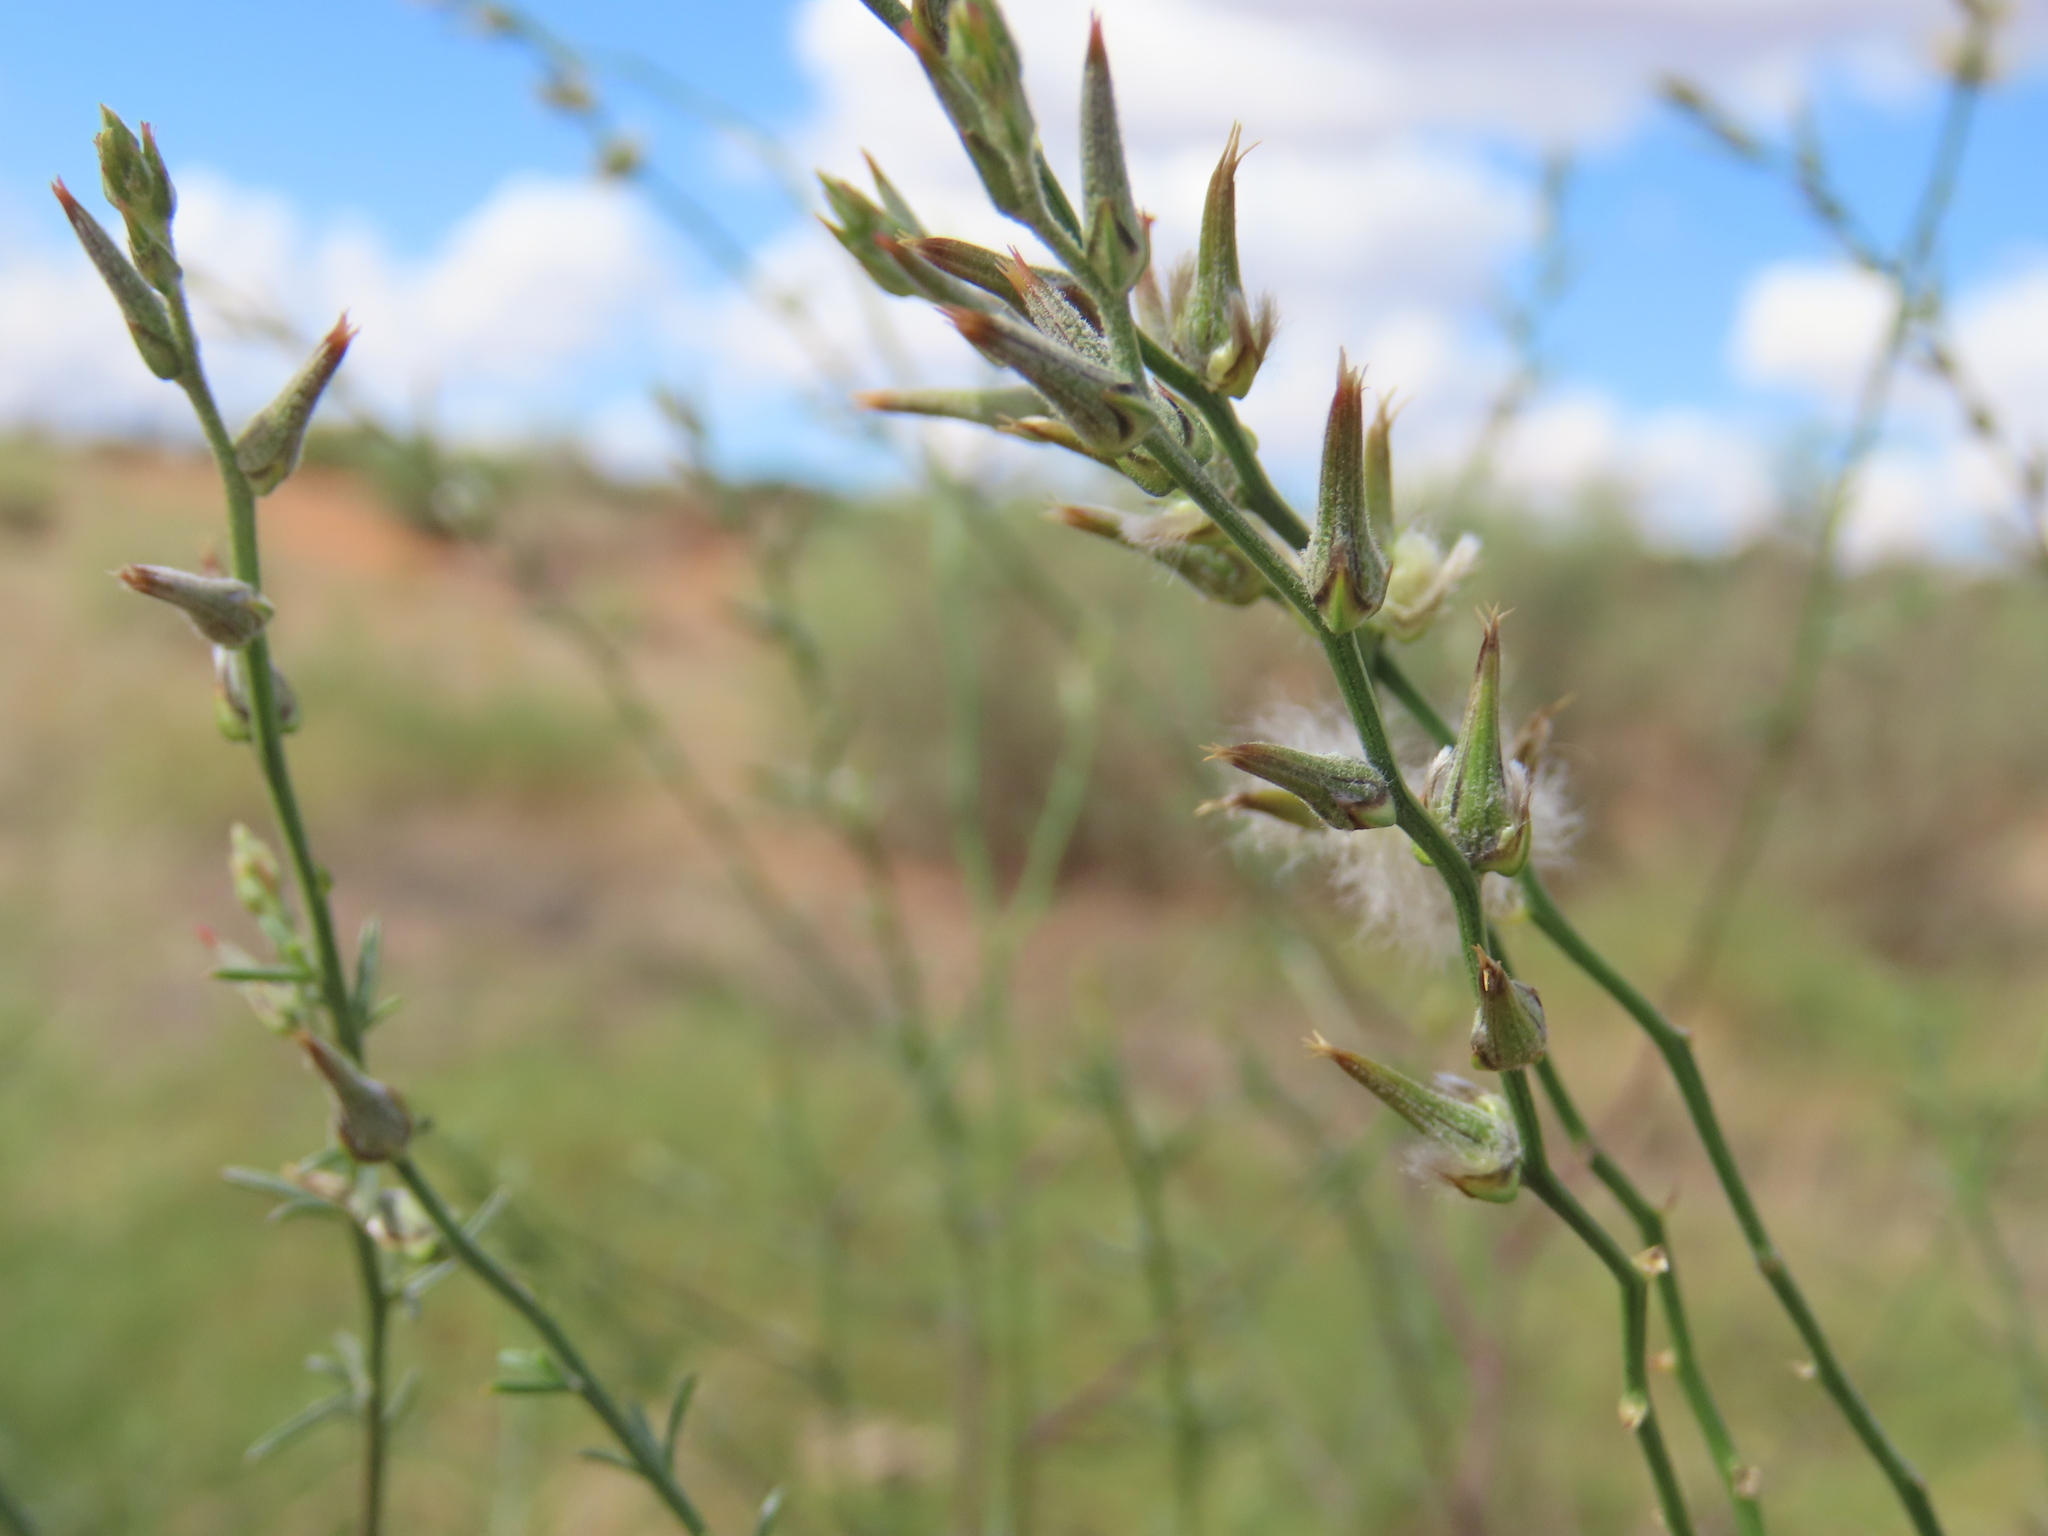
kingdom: Plantae
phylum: Tracheophyta
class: Magnoliopsida
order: Caryophyllales
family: Amaranthaceae
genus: Sericorema
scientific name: Sericorema sericea
